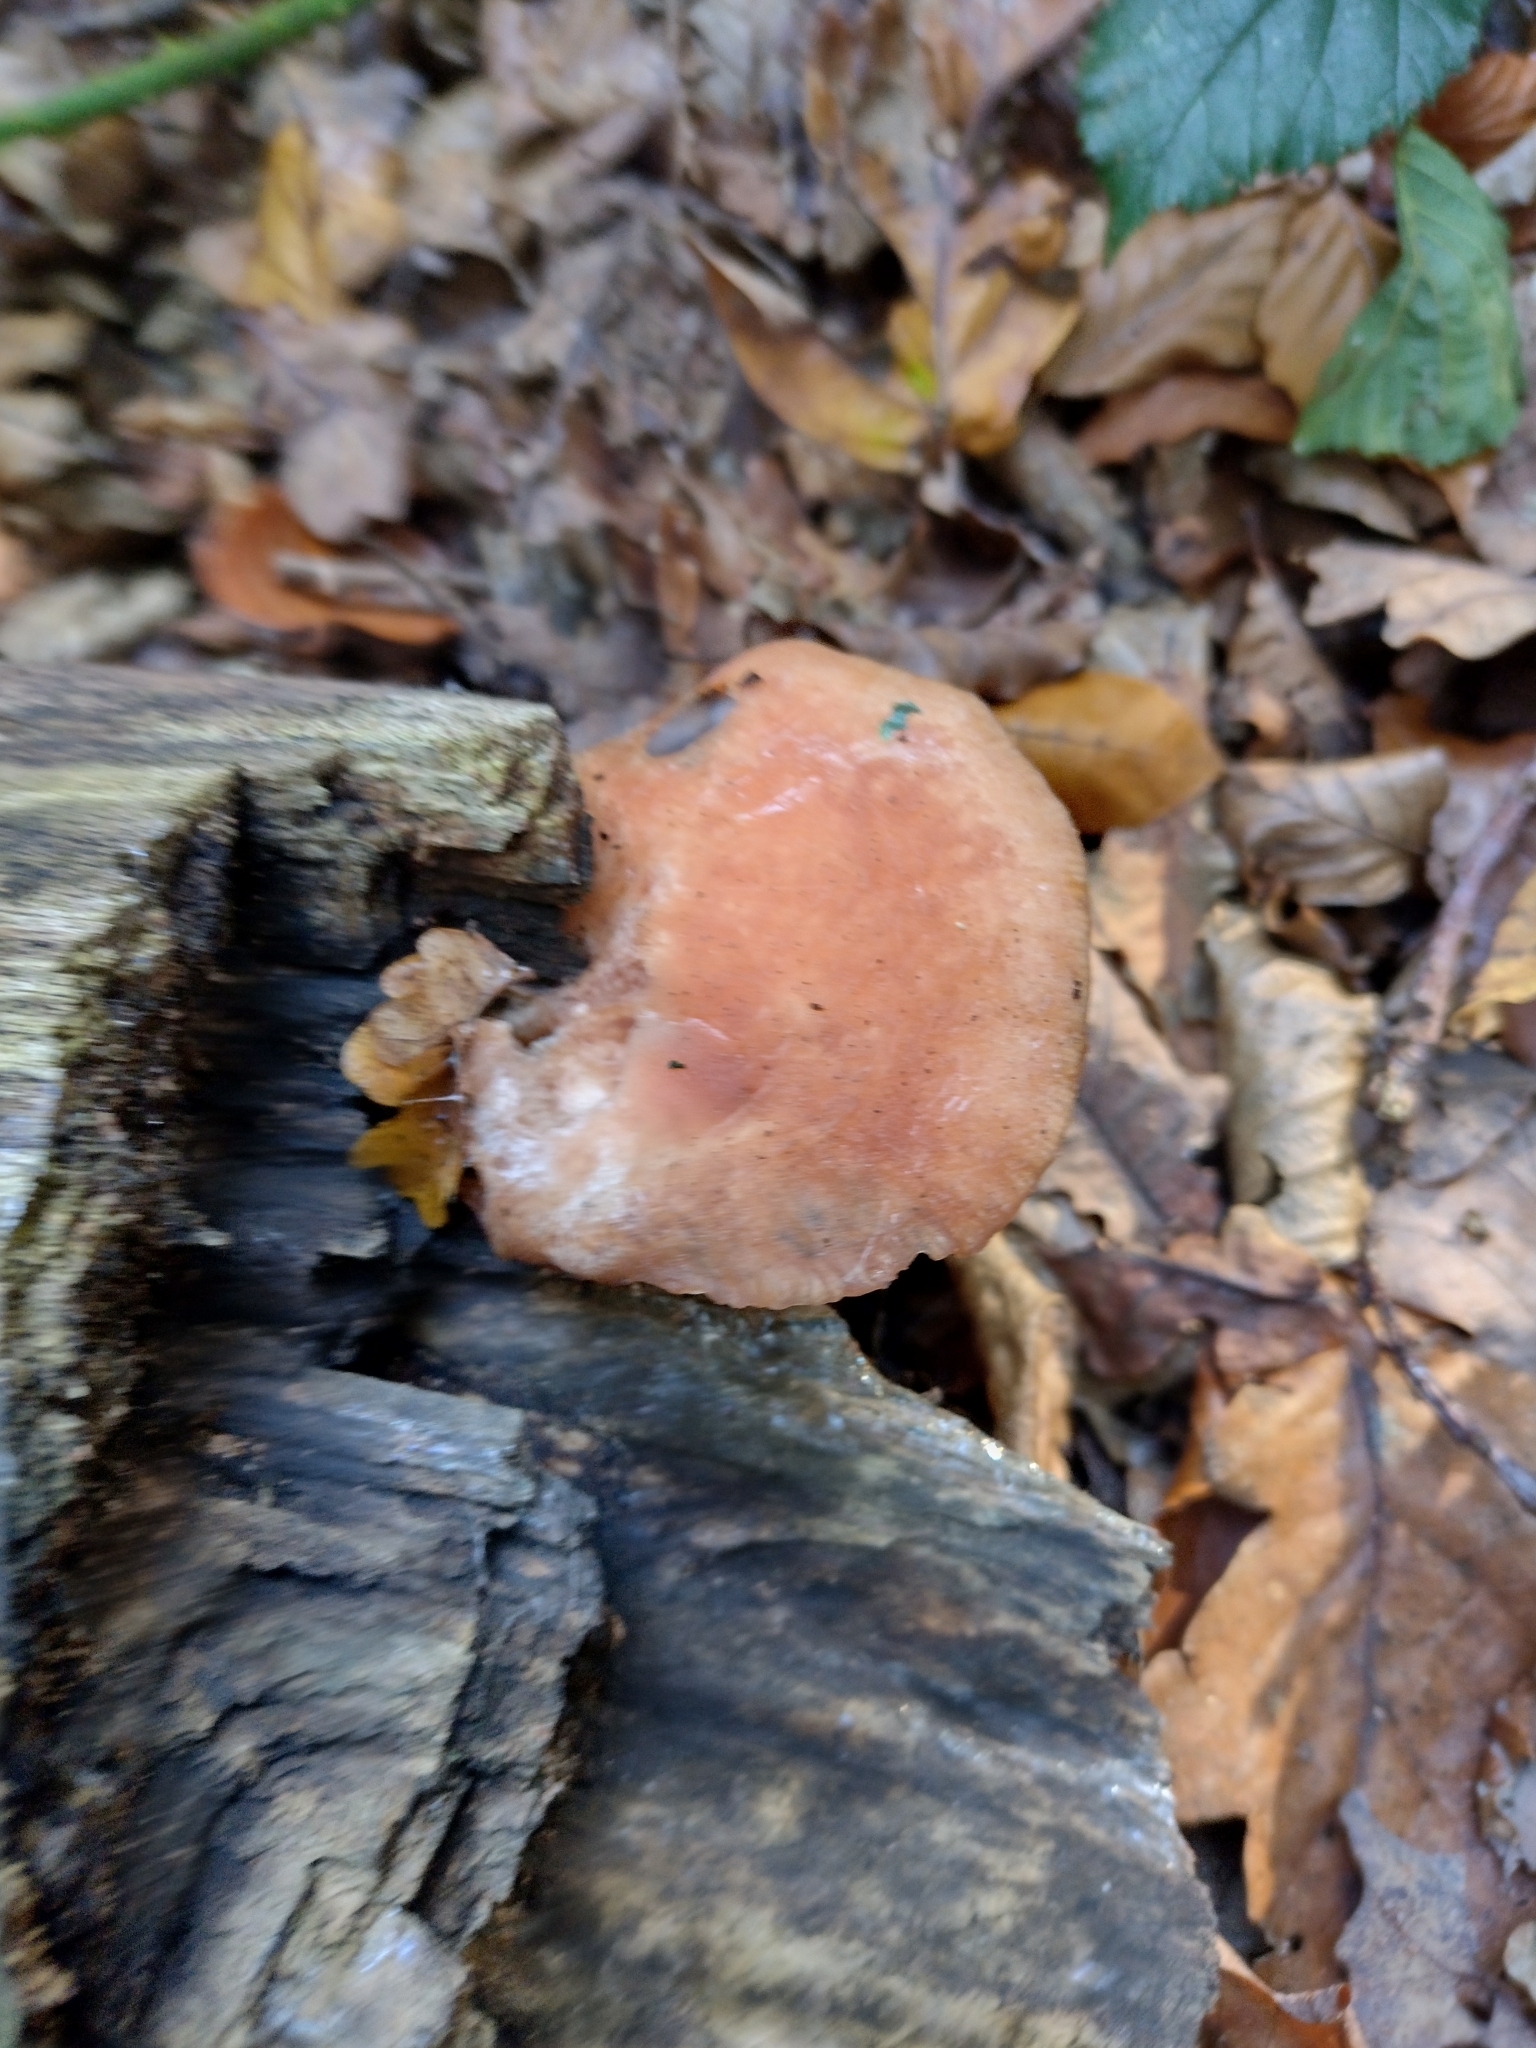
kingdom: Fungi
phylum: Basidiomycota
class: Agaricomycetes
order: Agaricales
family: Physalacriaceae
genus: Rhodotus
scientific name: Rhodotus palmatus
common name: Wrinkled peach
